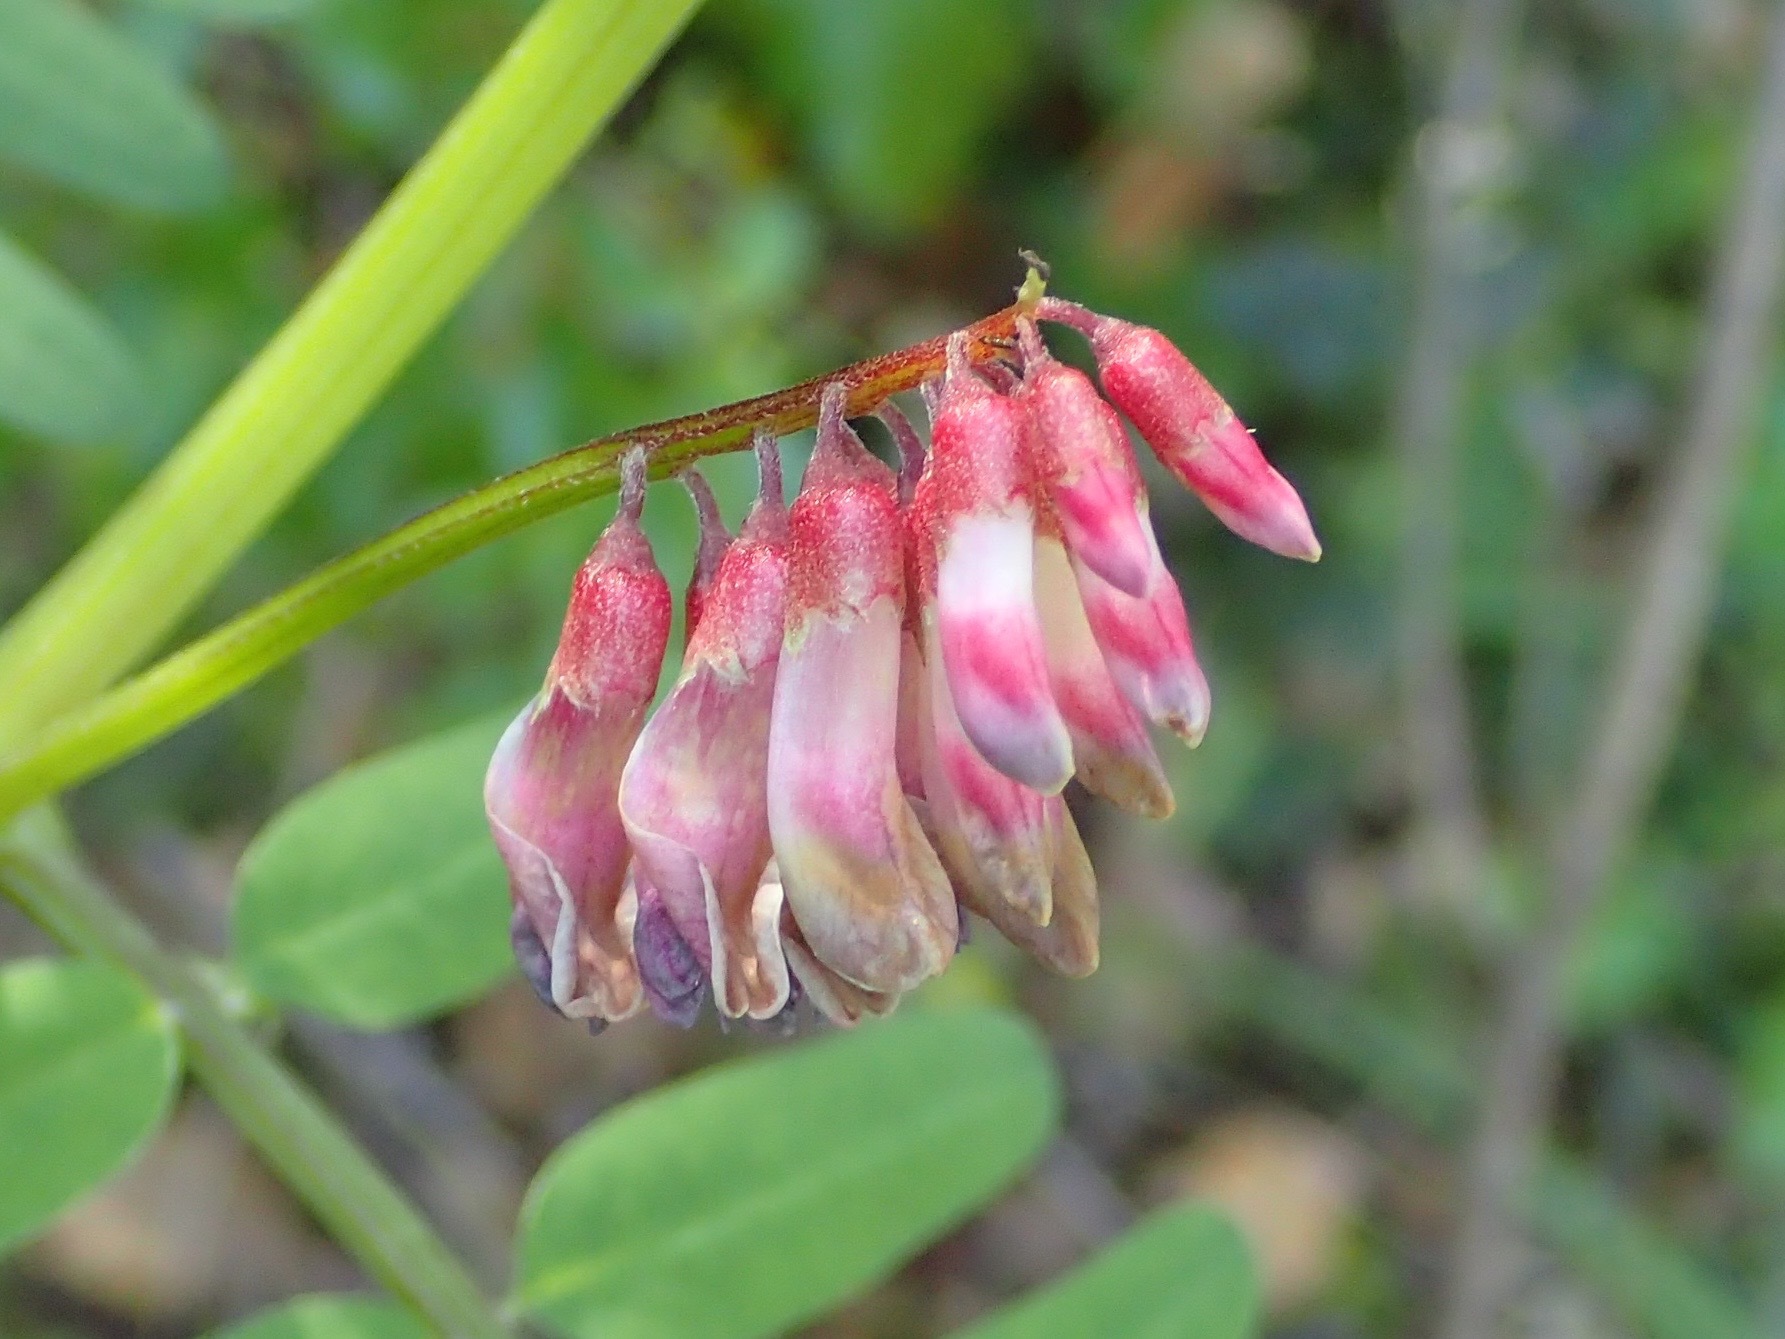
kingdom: Plantae
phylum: Tracheophyta
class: Magnoliopsida
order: Fabales
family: Fabaceae
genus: Vicia
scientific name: Vicia
